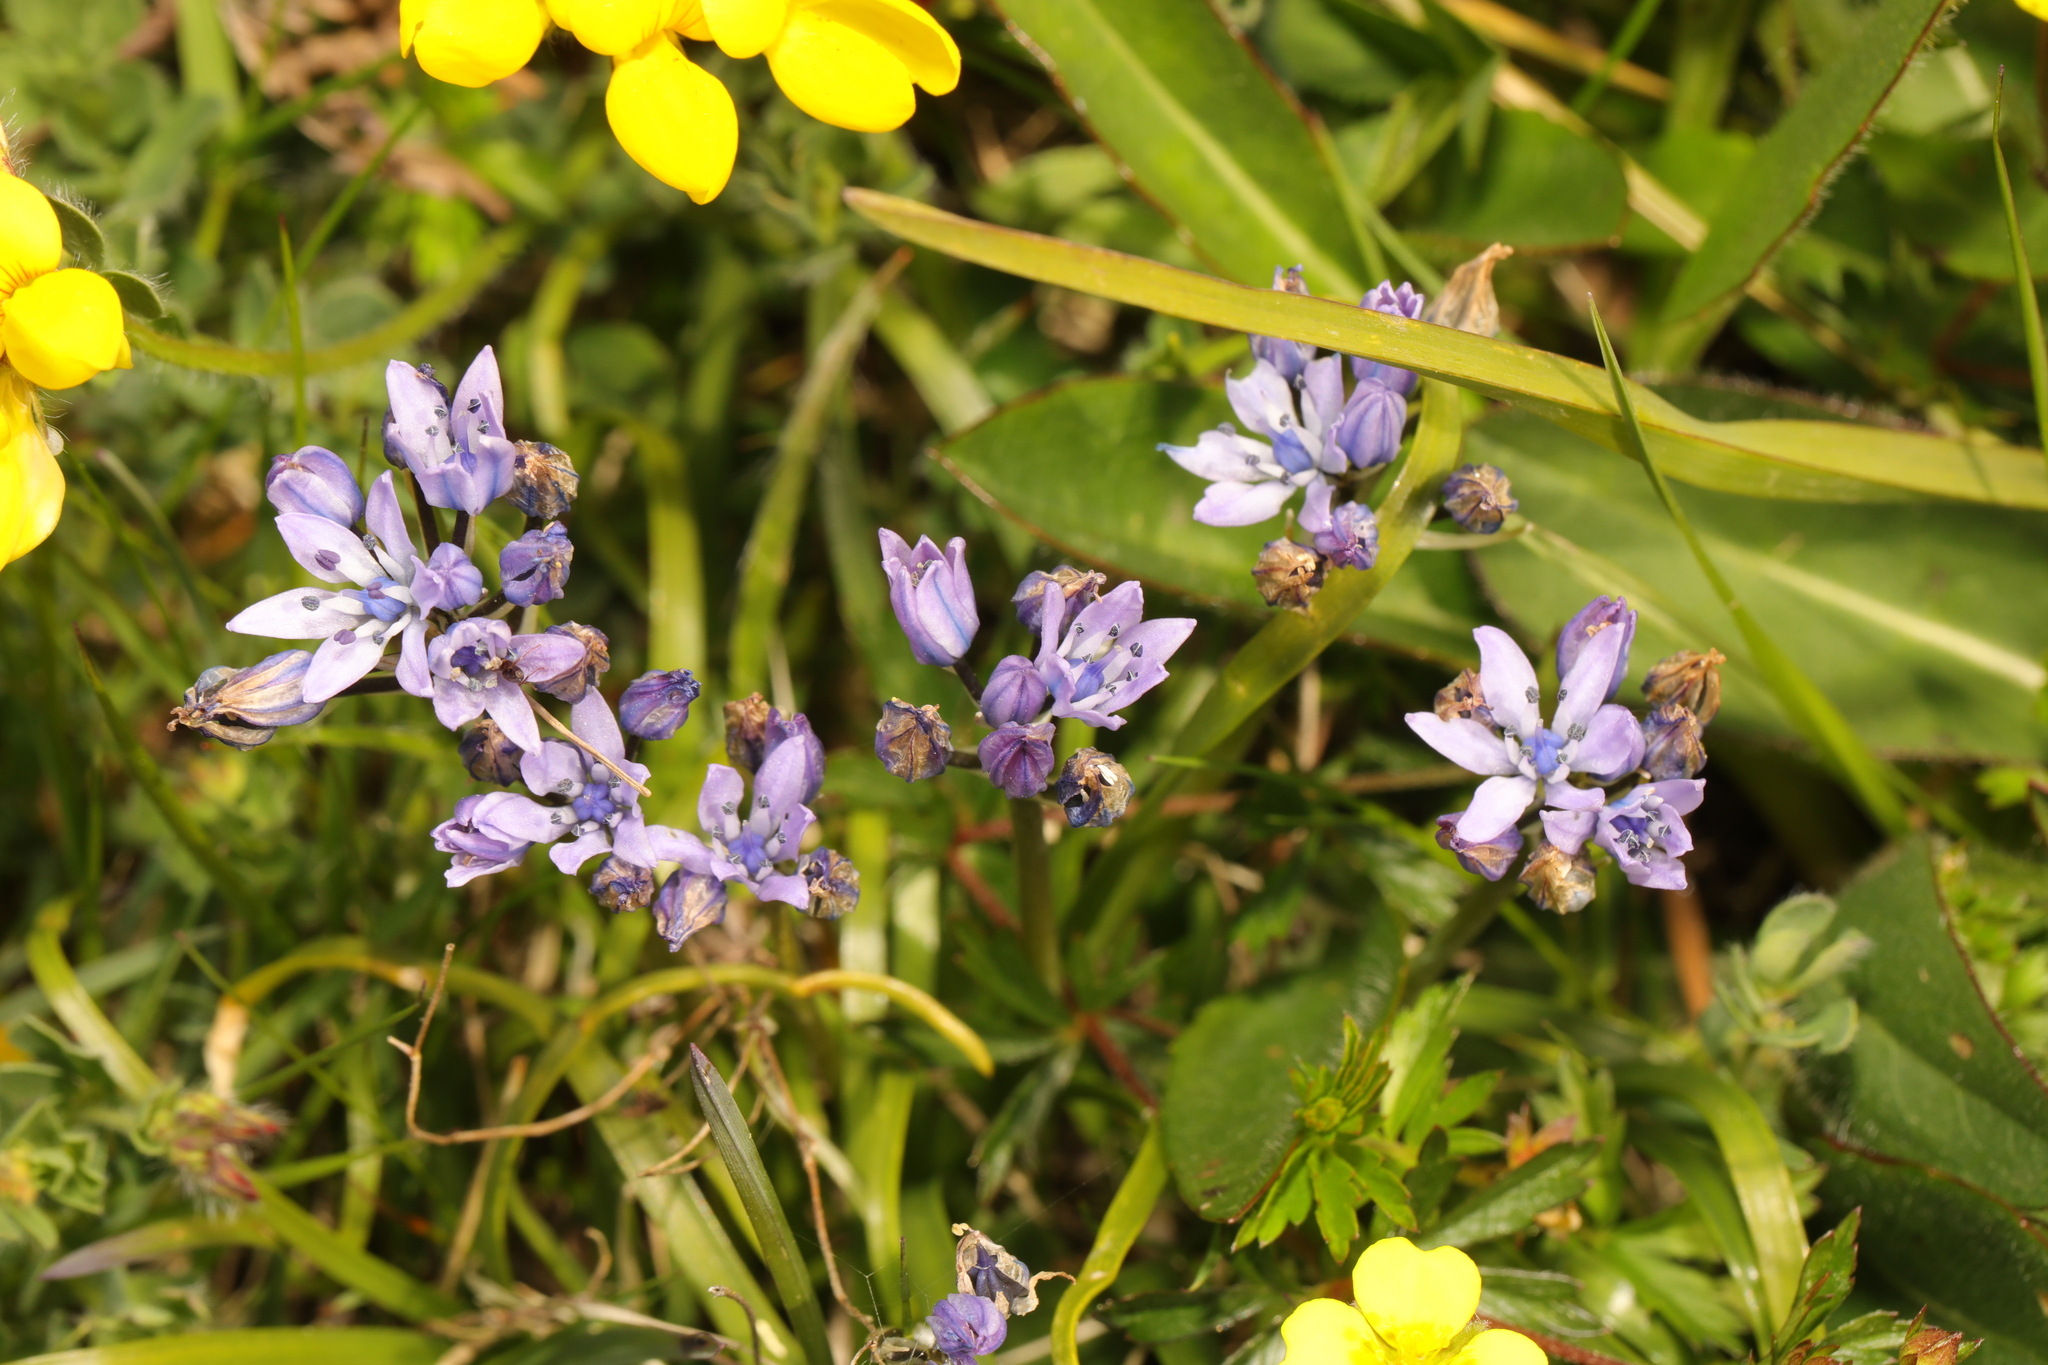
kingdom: Plantae
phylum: Tracheophyta
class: Liliopsida
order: Asparagales
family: Asparagaceae
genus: Scilla
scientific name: Scilla verna
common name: Spring squill
